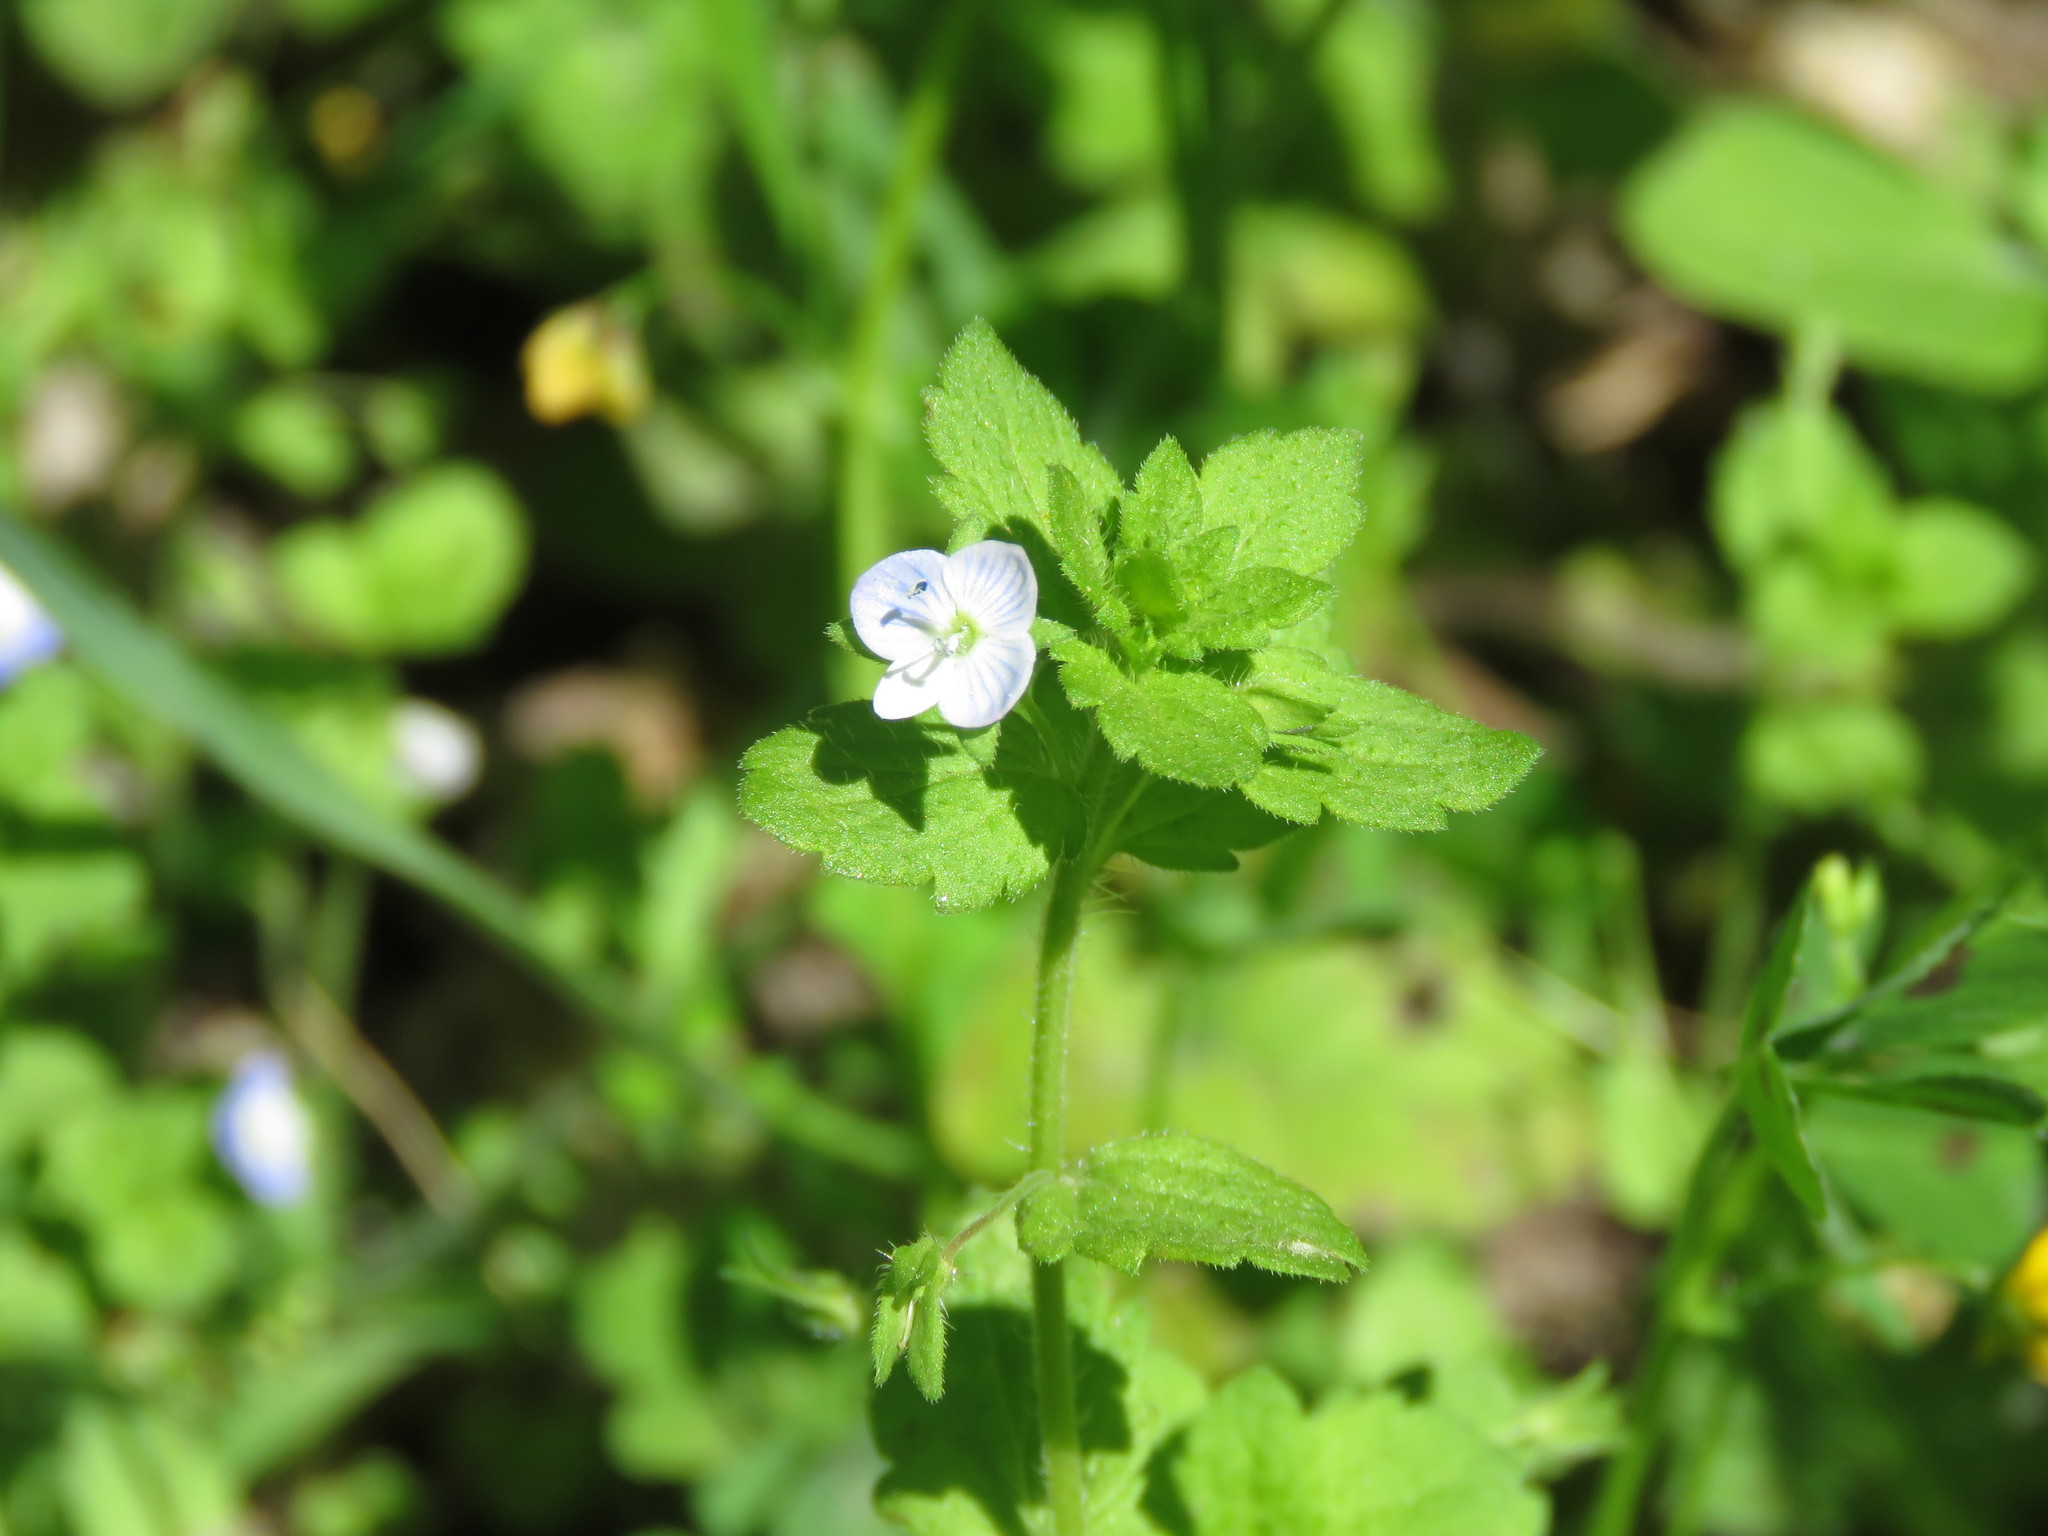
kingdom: Plantae
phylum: Tracheophyta
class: Magnoliopsida
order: Lamiales
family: Plantaginaceae
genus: Veronica
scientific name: Veronica persica
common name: Common field-speedwell
